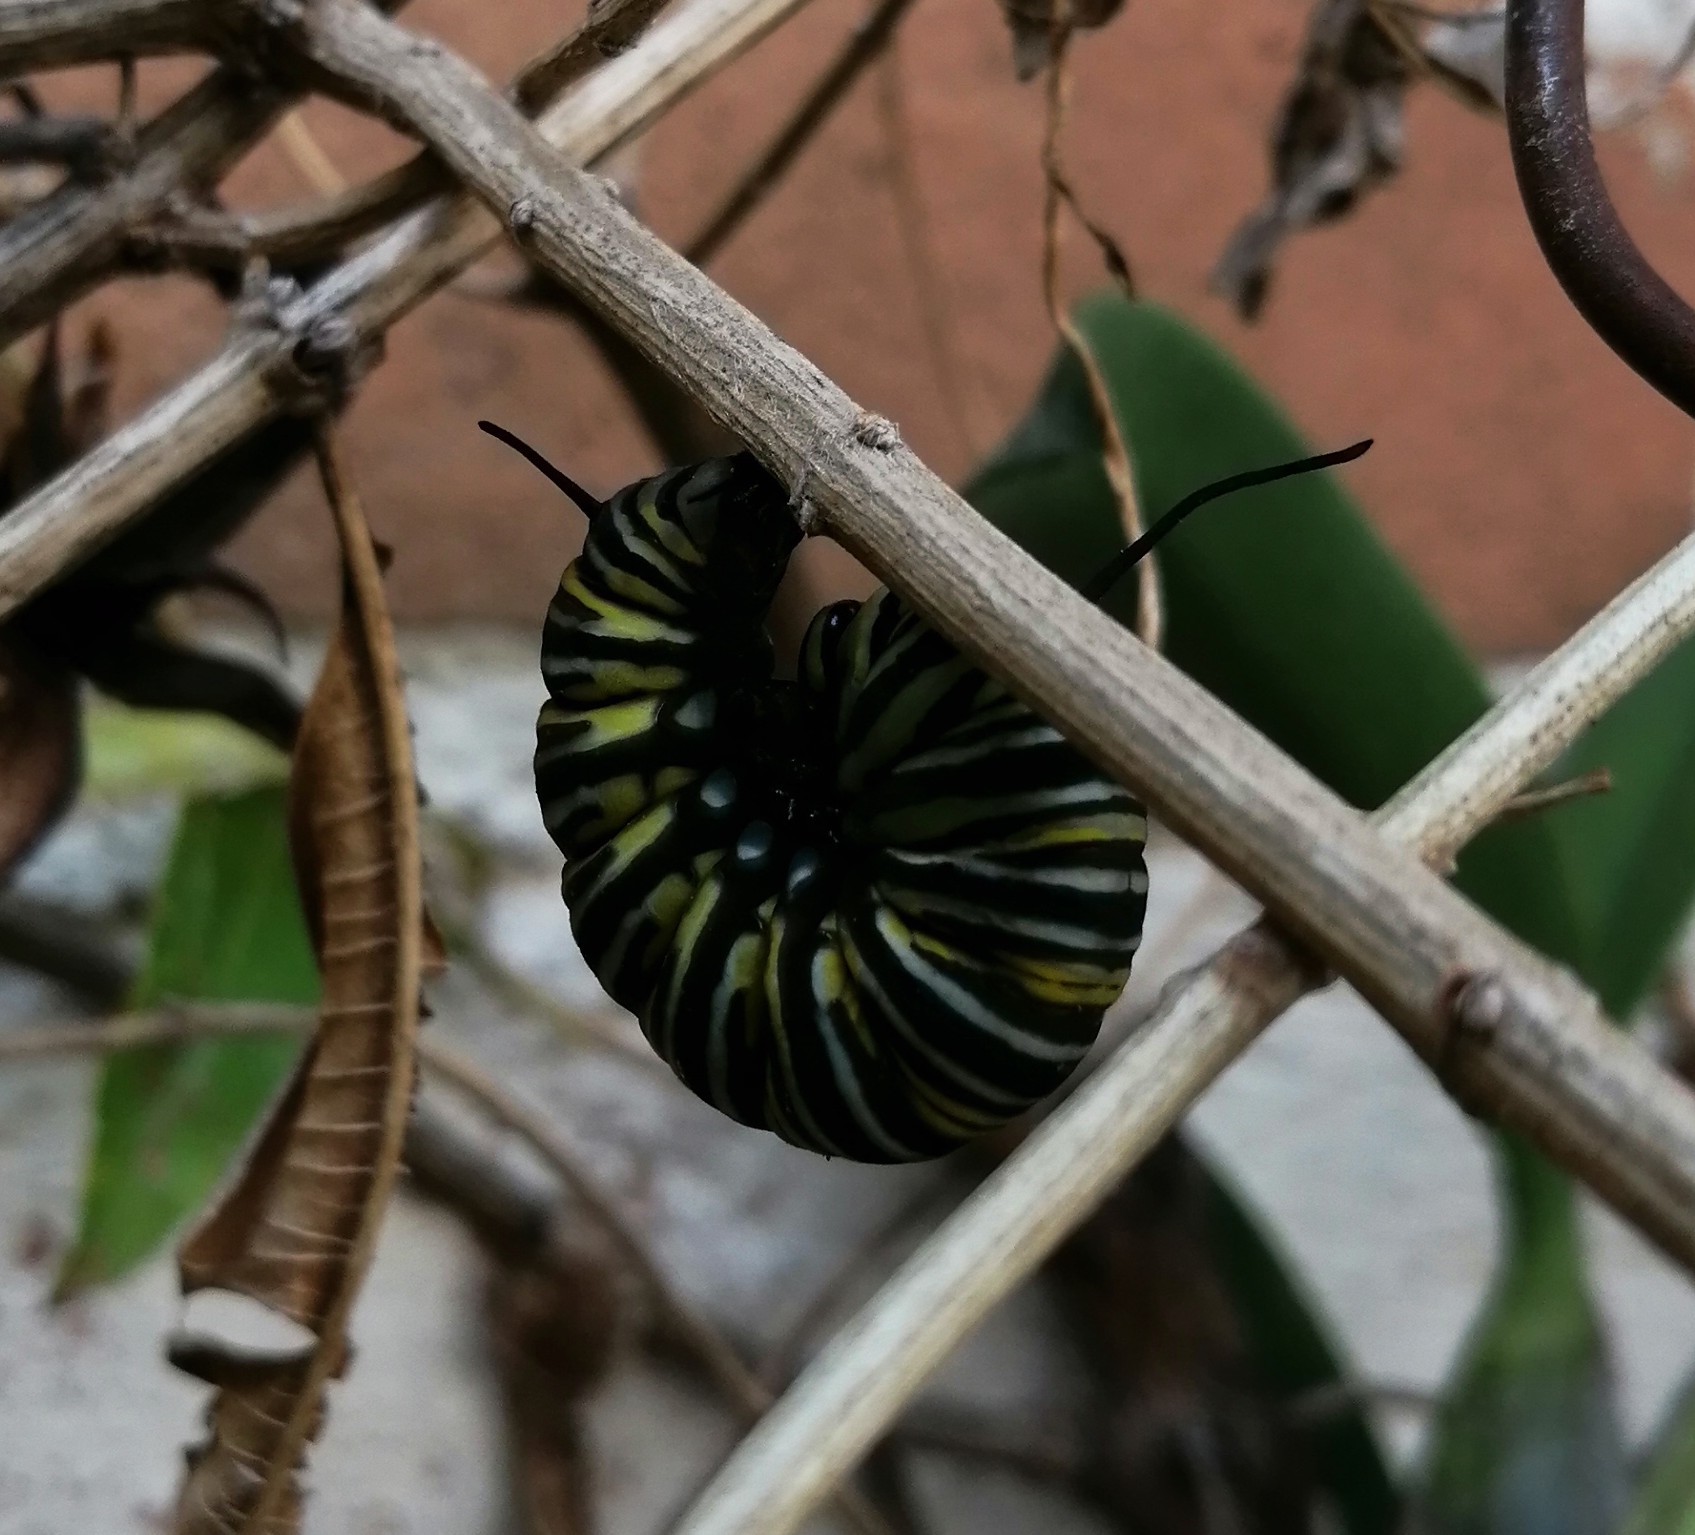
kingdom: Animalia
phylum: Arthropoda
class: Insecta
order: Lepidoptera
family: Nymphalidae
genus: Danaus
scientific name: Danaus plexippus
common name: Monarch
